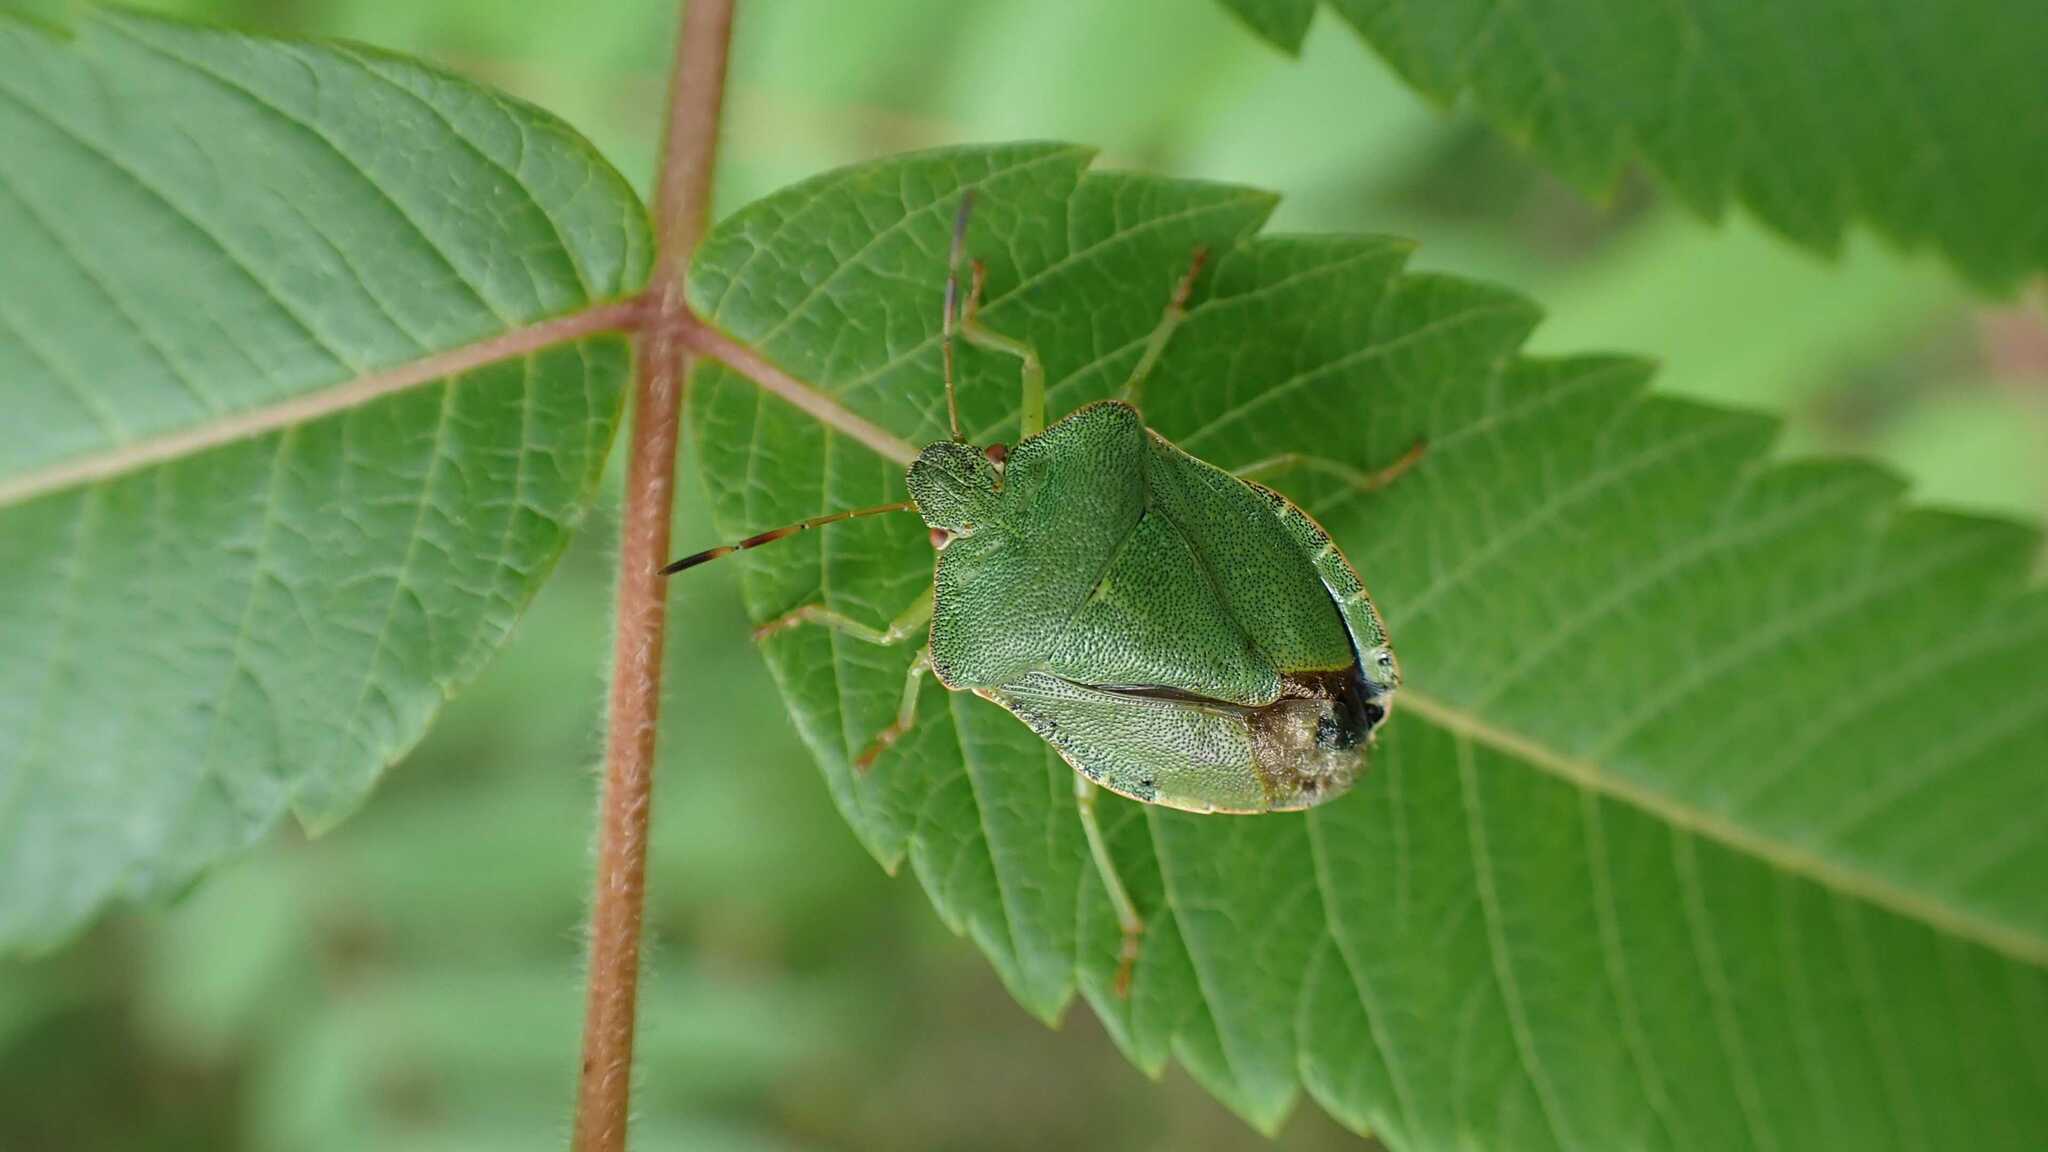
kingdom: Animalia
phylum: Arthropoda
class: Insecta
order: Hemiptera
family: Pentatomidae
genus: Palomena
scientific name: Palomena prasina
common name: Green shieldbug
